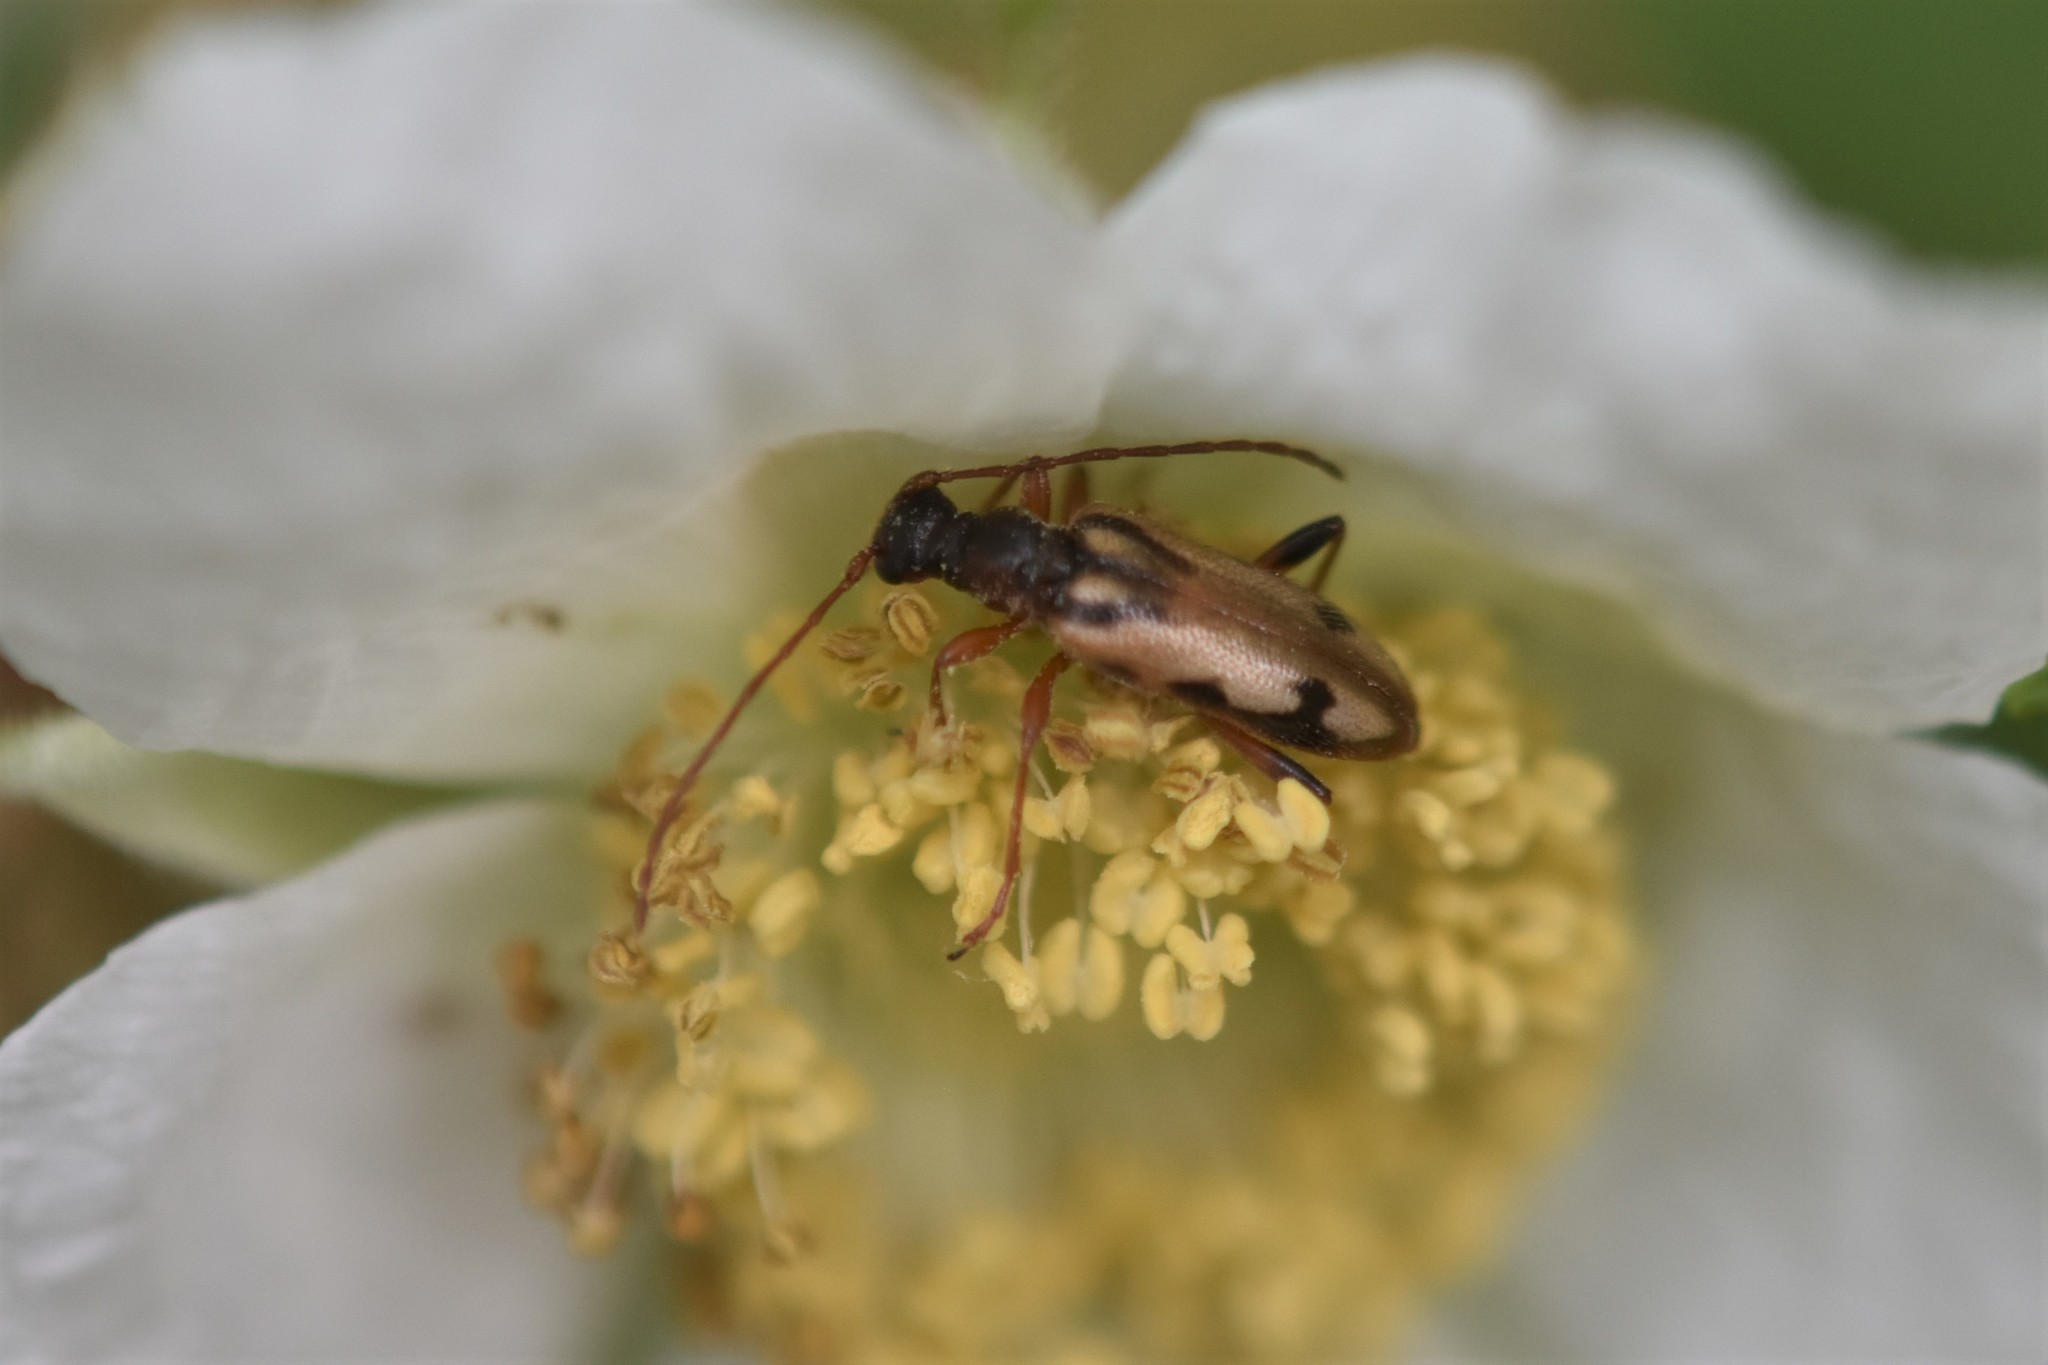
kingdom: Animalia
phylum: Arthropoda
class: Insecta
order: Coleoptera
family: Cerambycidae
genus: Pidonia
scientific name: Pidonia scripta
